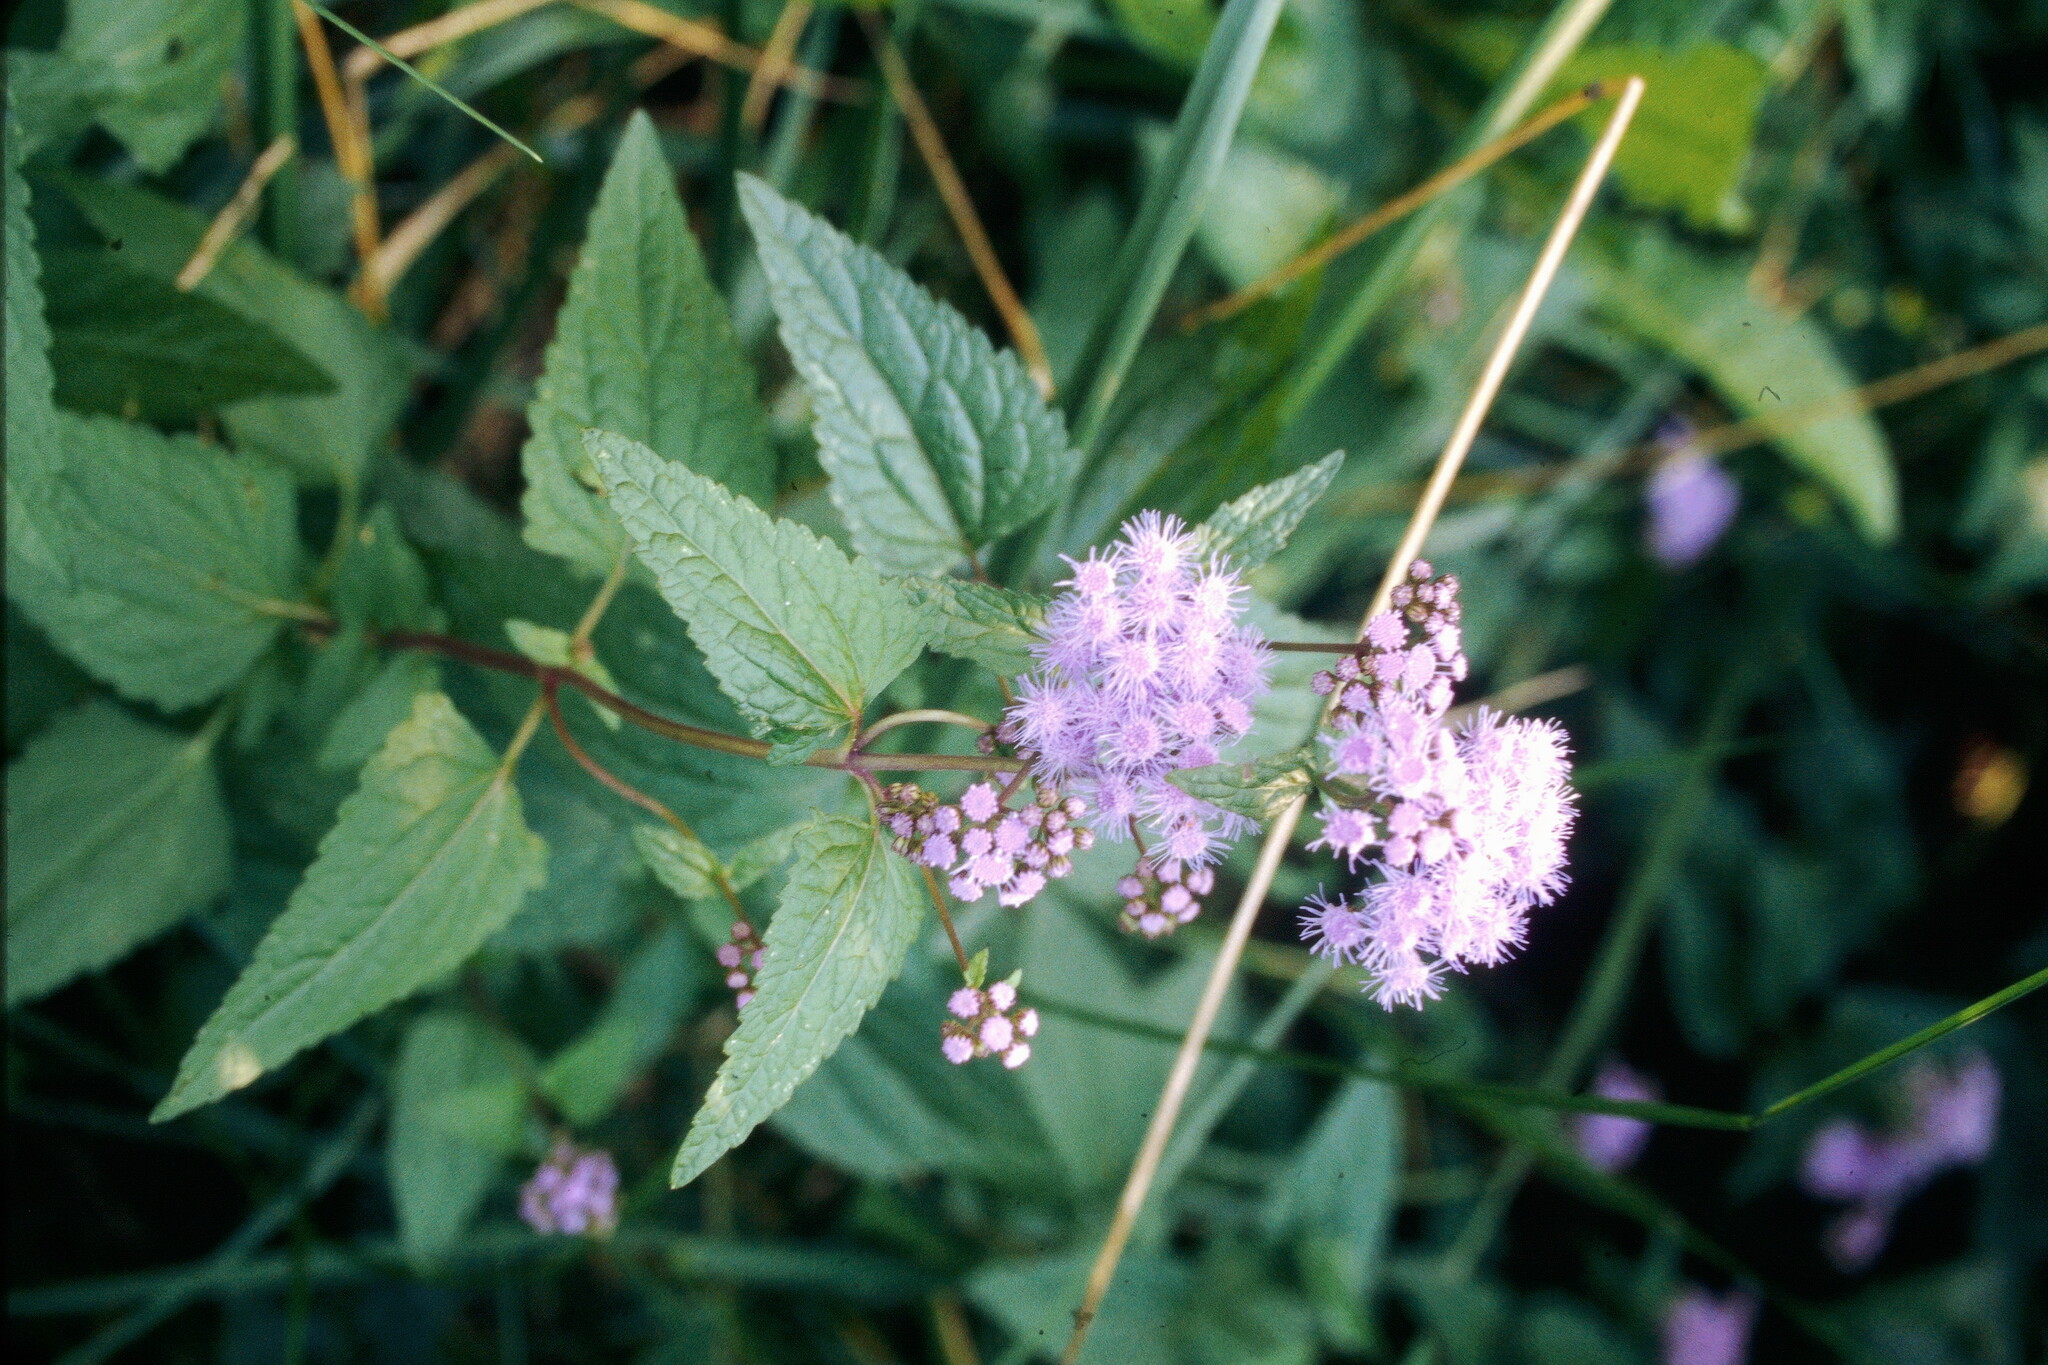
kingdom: Plantae
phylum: Tracheophyta
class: Magnoliopsida
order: Asterales
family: Asteraceae
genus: Conoclinium
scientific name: Conoclinium coelestinum
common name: Blue mistflower
